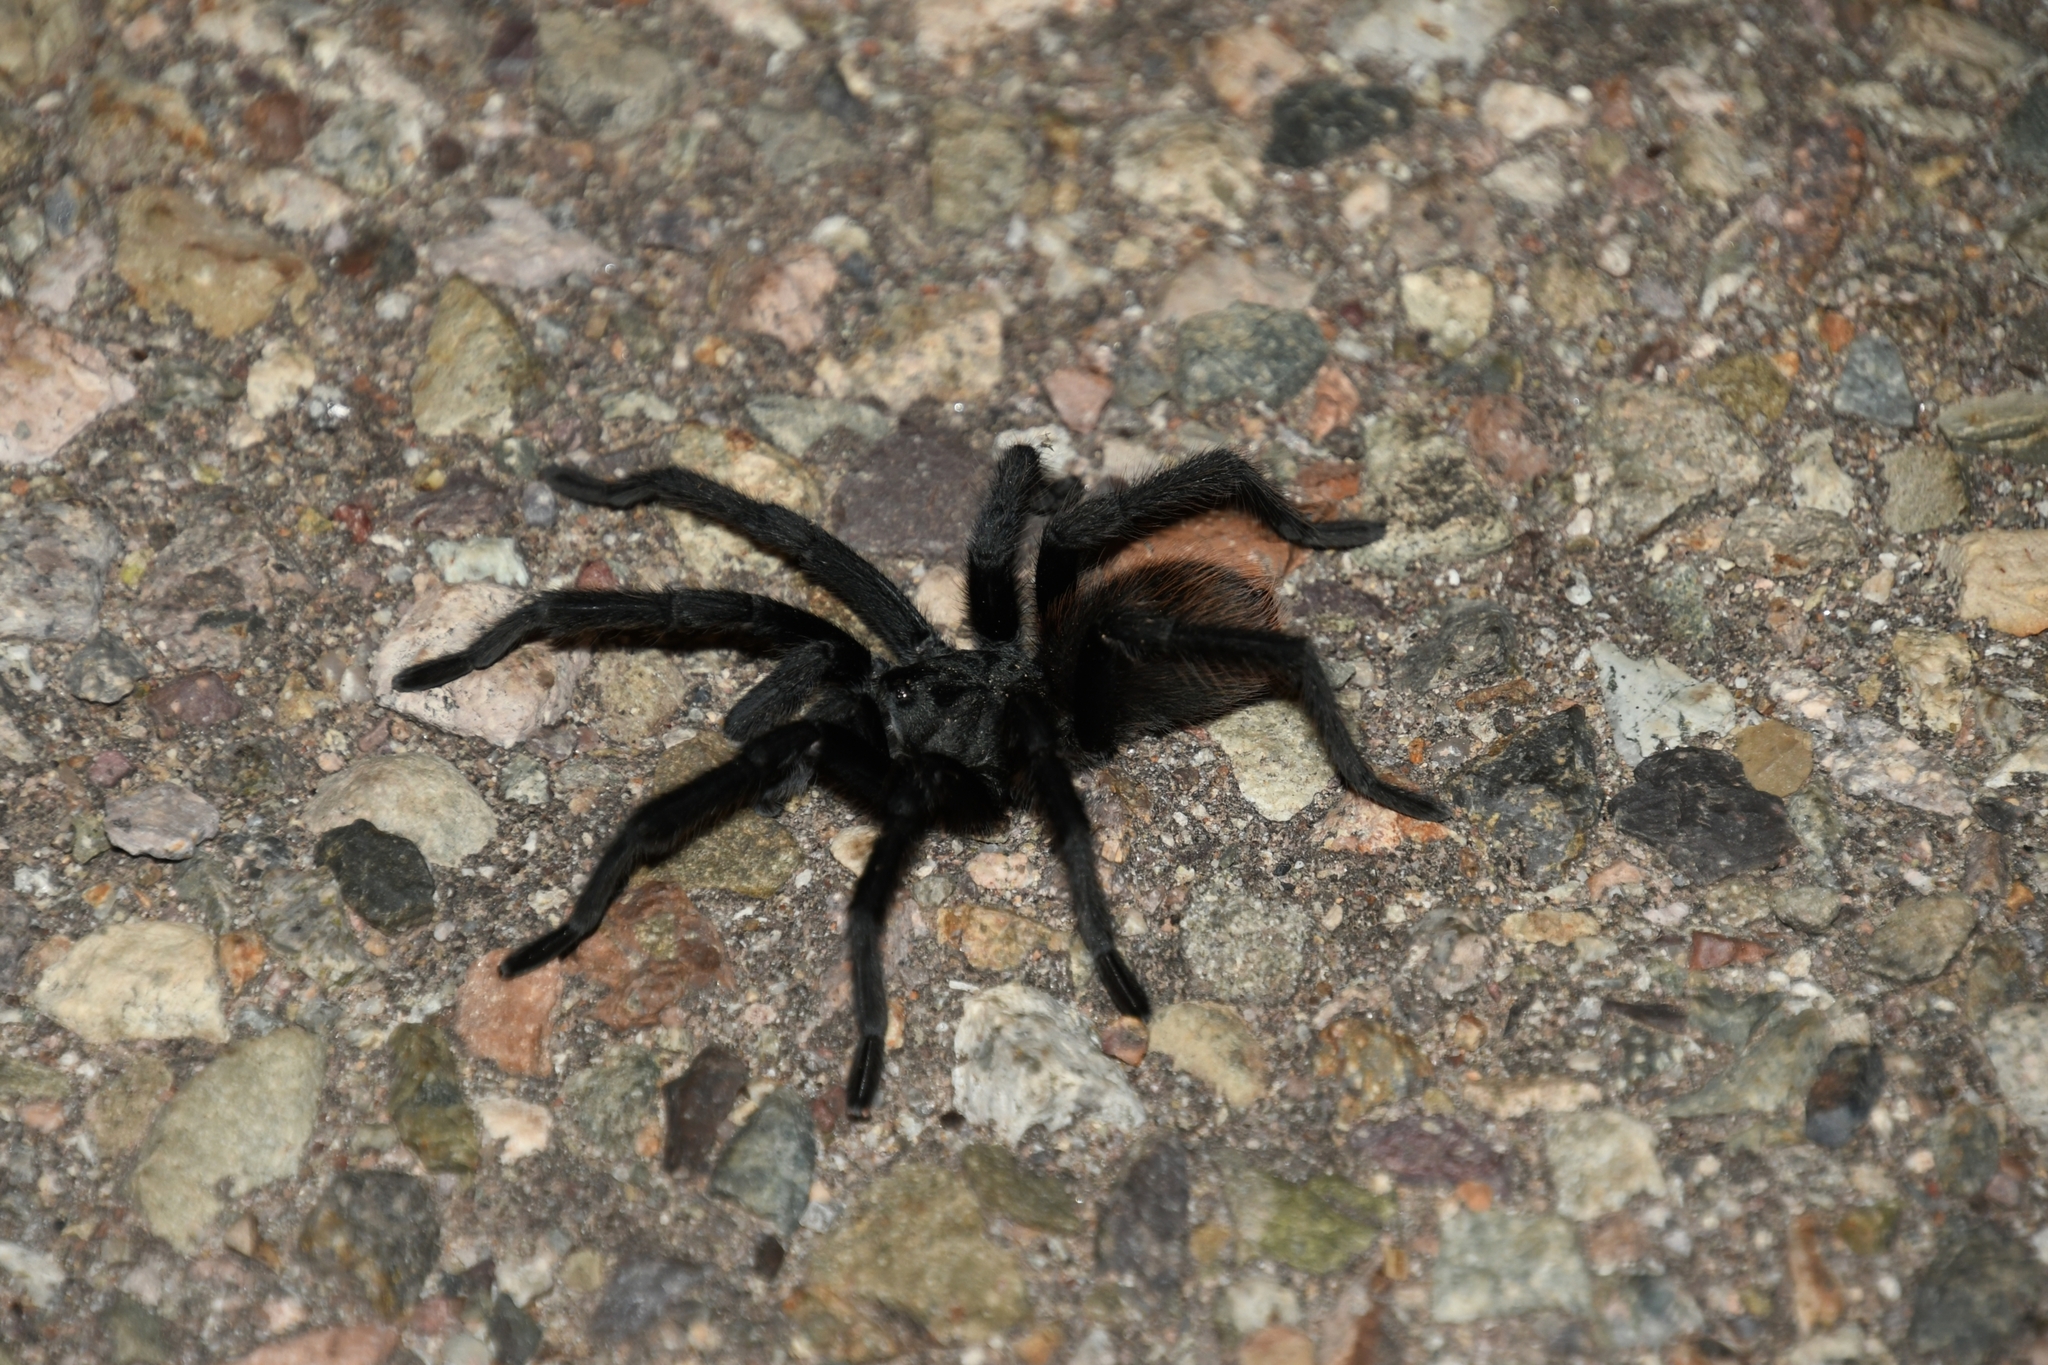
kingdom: Animalia
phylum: Arthropoda
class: Arachnida
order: Araneae
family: Theraphosidae
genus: Aphonopelma
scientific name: Aphonopelma vorhiesi
